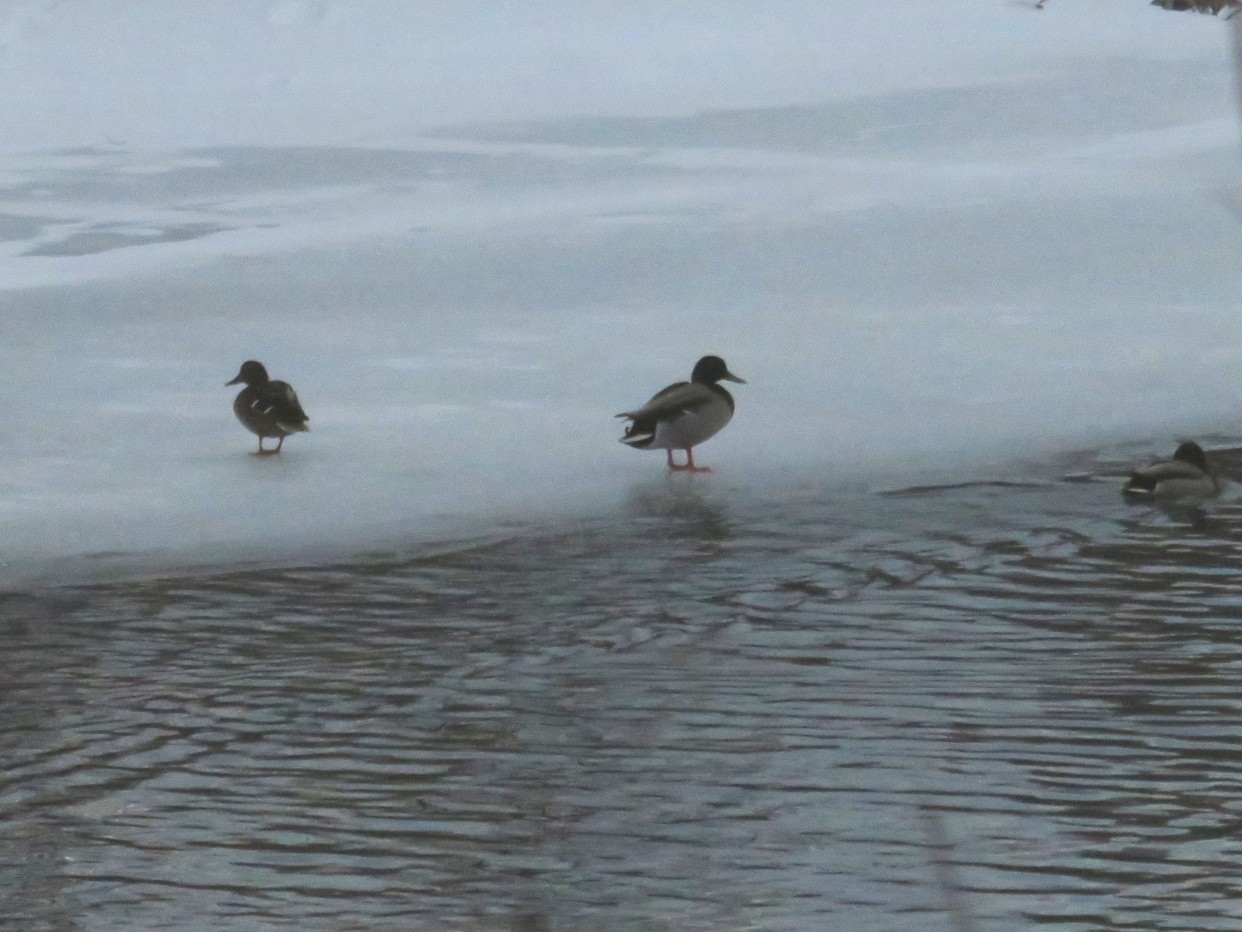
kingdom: Animalia
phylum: Chordata
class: Aves
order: Anseriformes
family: Anatidae
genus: Anas
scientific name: Anas platyrhynchos
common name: Mallard
